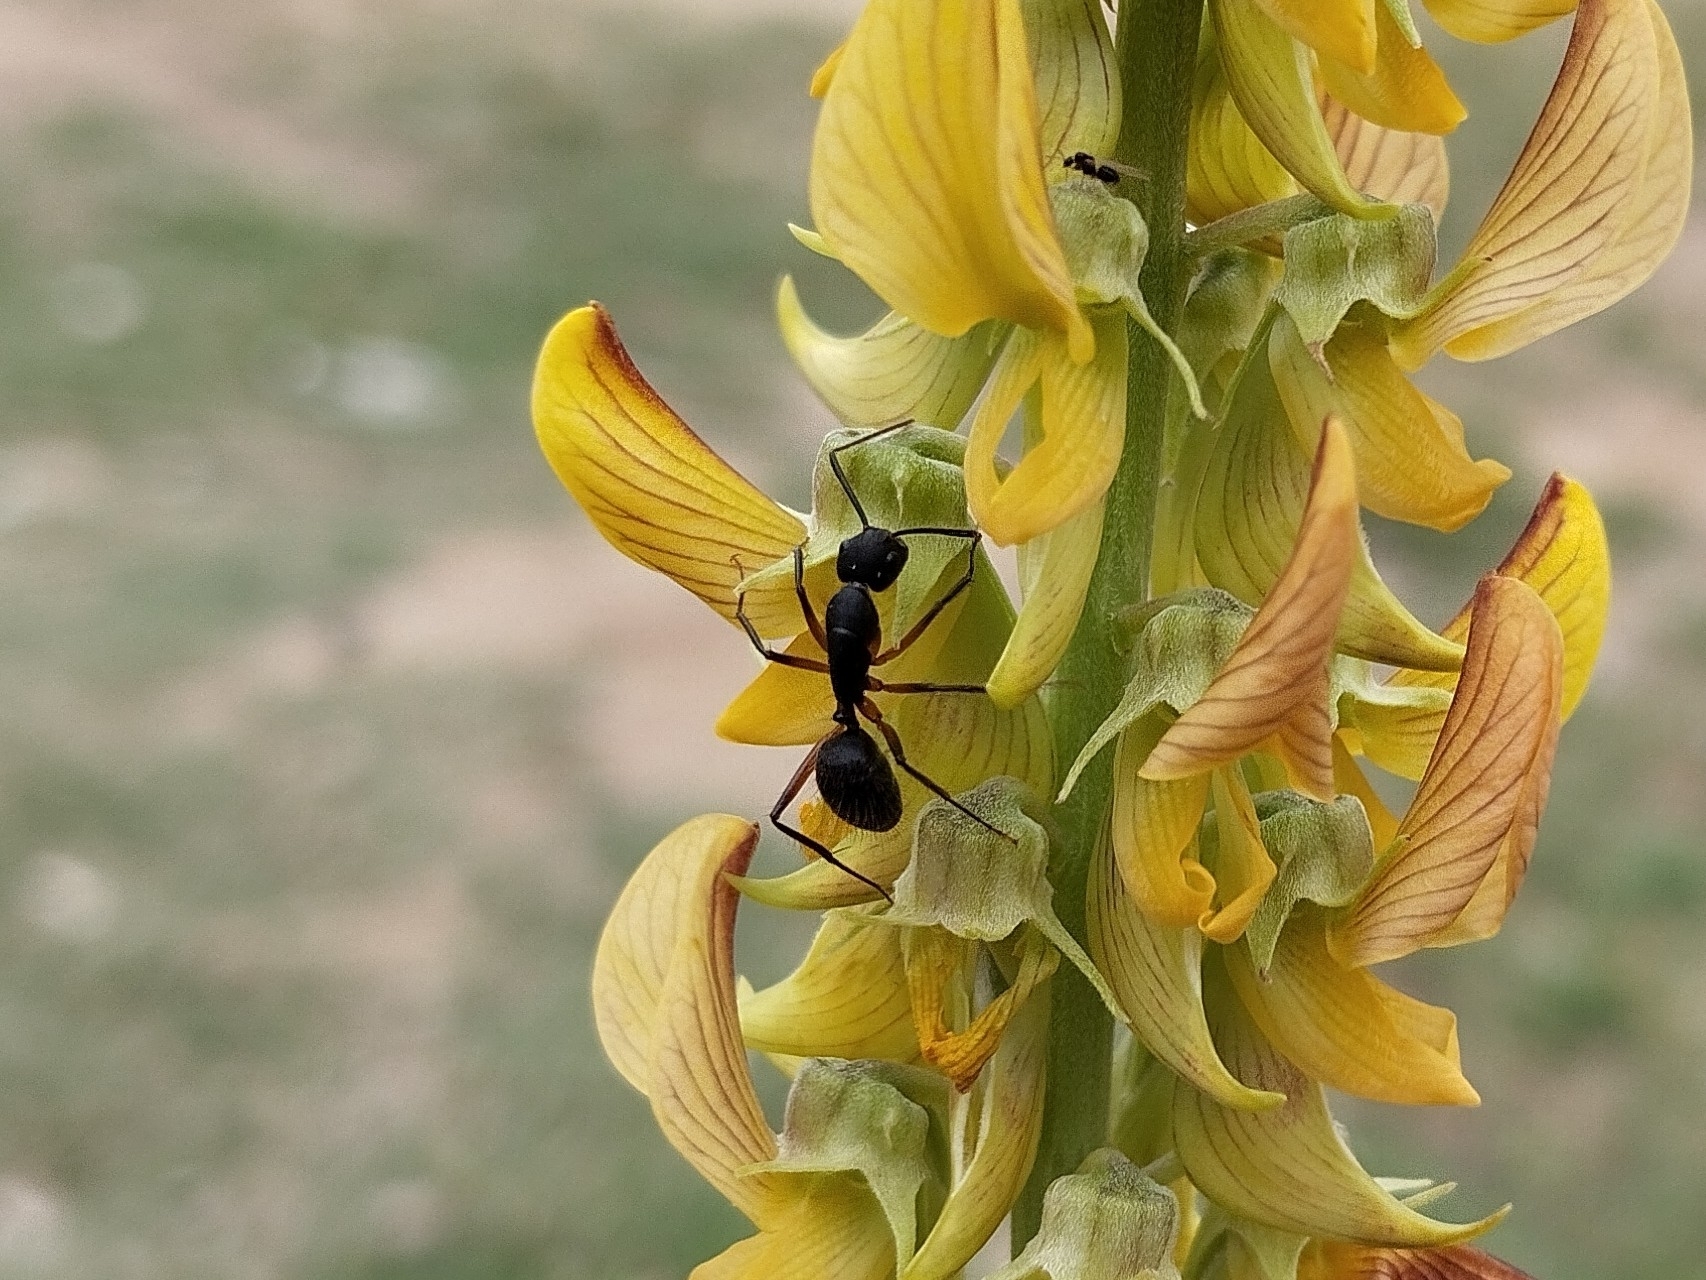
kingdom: Animalia
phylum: Arthropoda
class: Insecta
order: Hymenoptera
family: Formicidae
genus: Camponotus
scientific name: Camponotus rufipes
